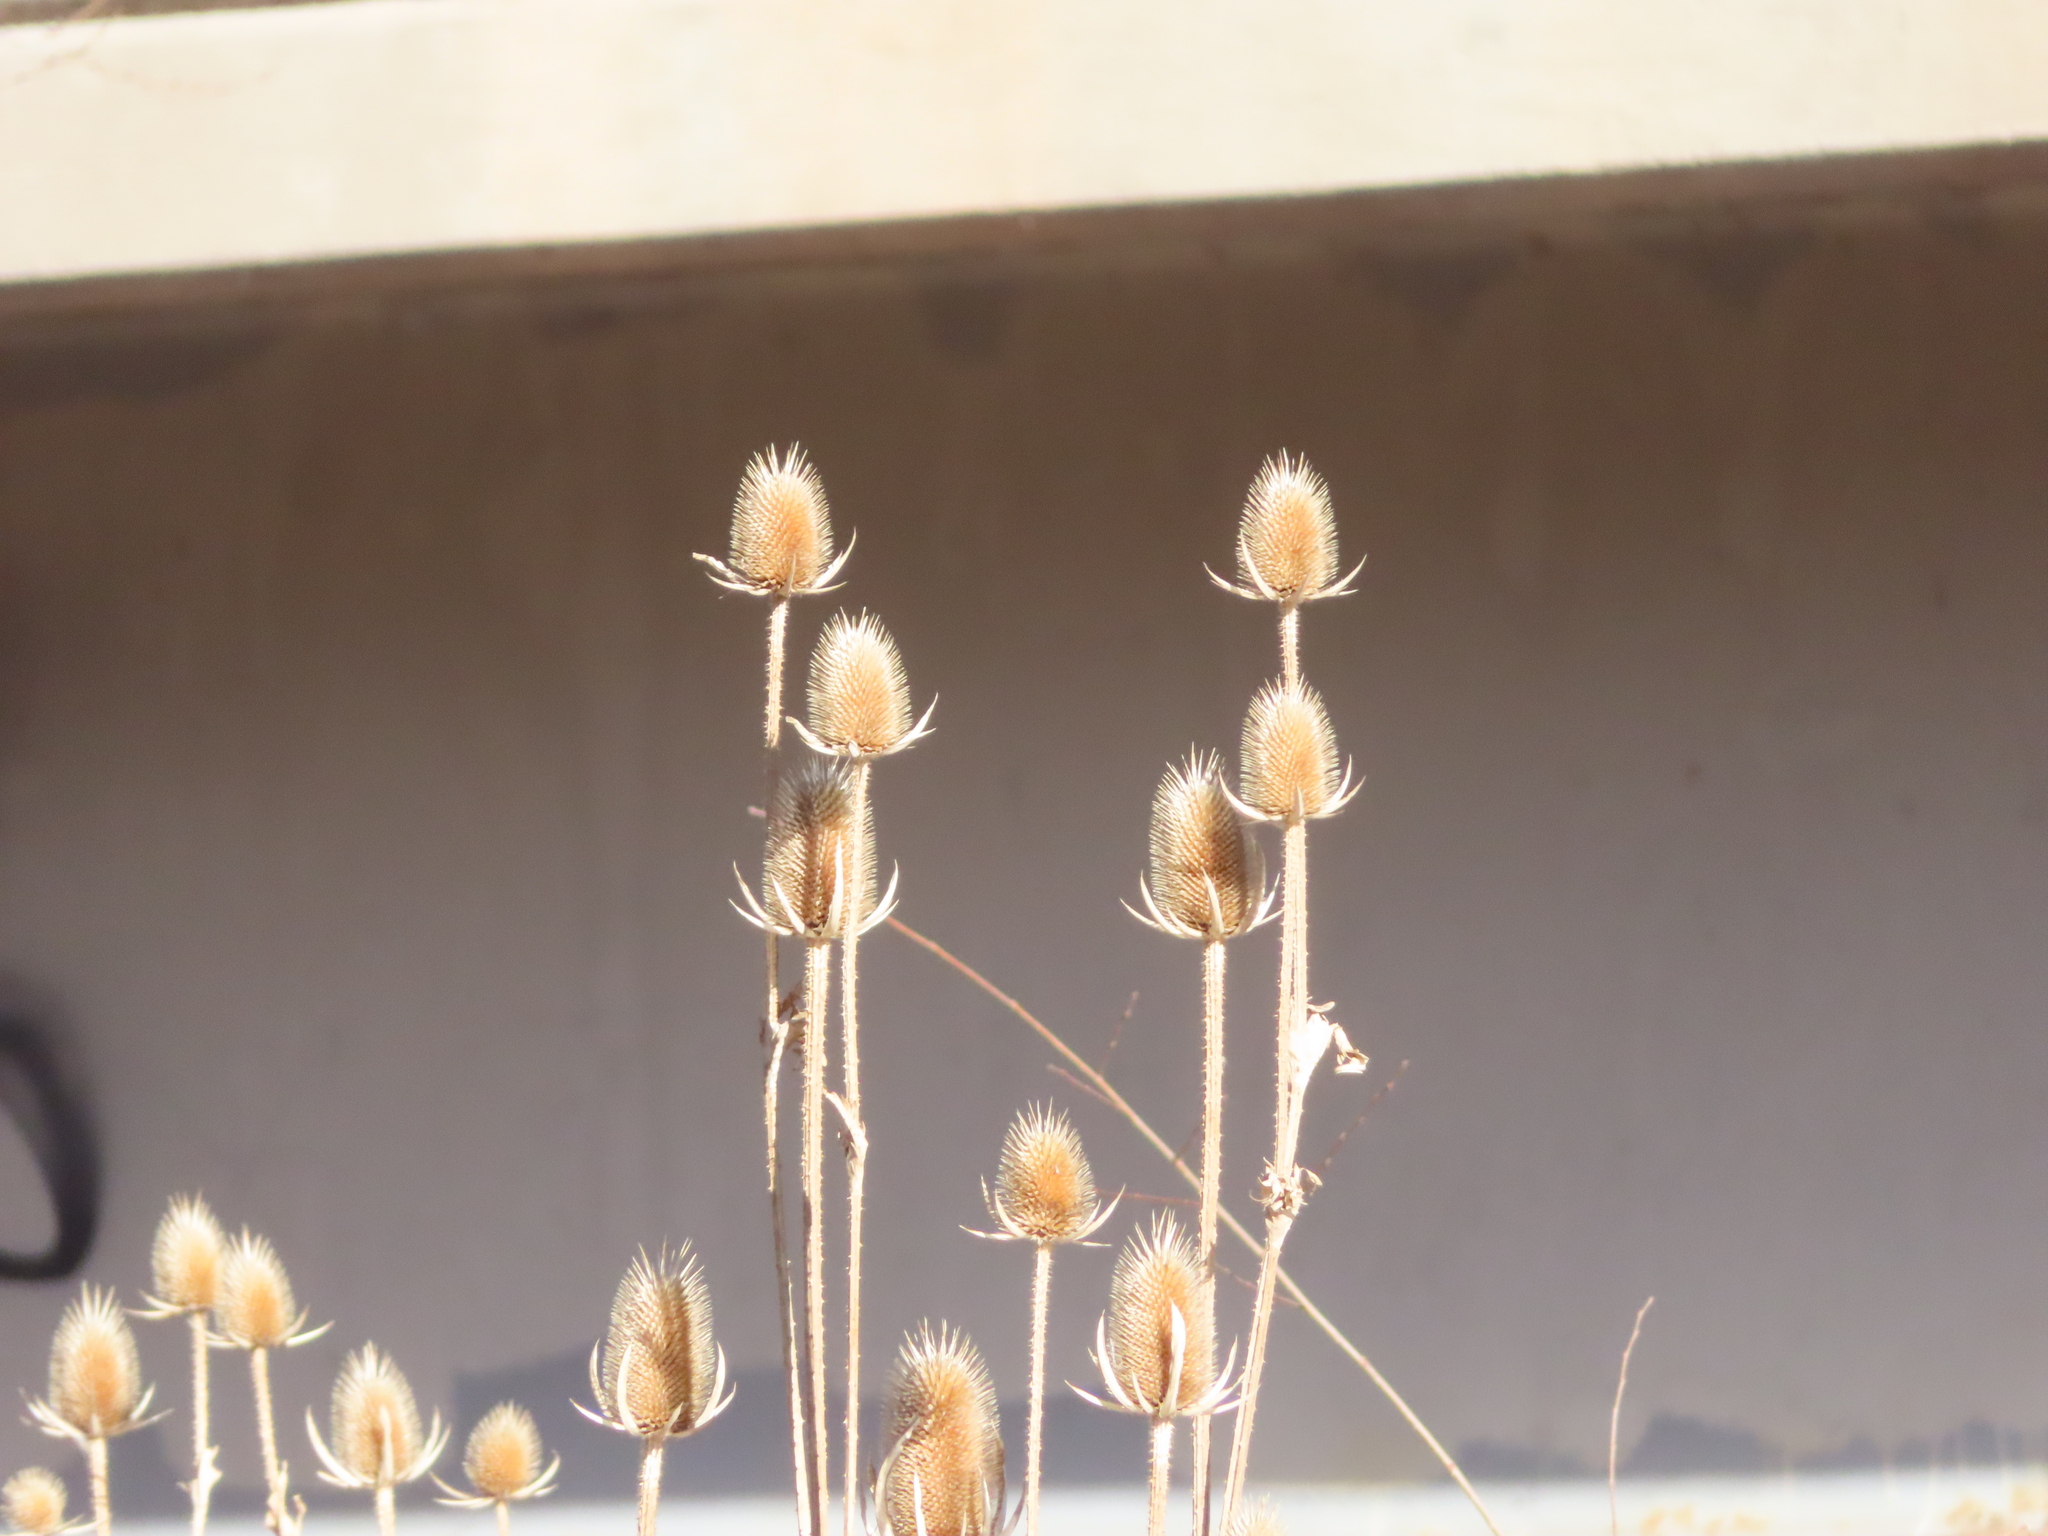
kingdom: Plantae
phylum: Tracheophyta
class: Magnoliopsida
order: Dipsacales
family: Caprifoliaceae
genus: Dipsacus
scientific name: Dipsacus laciniatus
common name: Cut-leaved teasel
